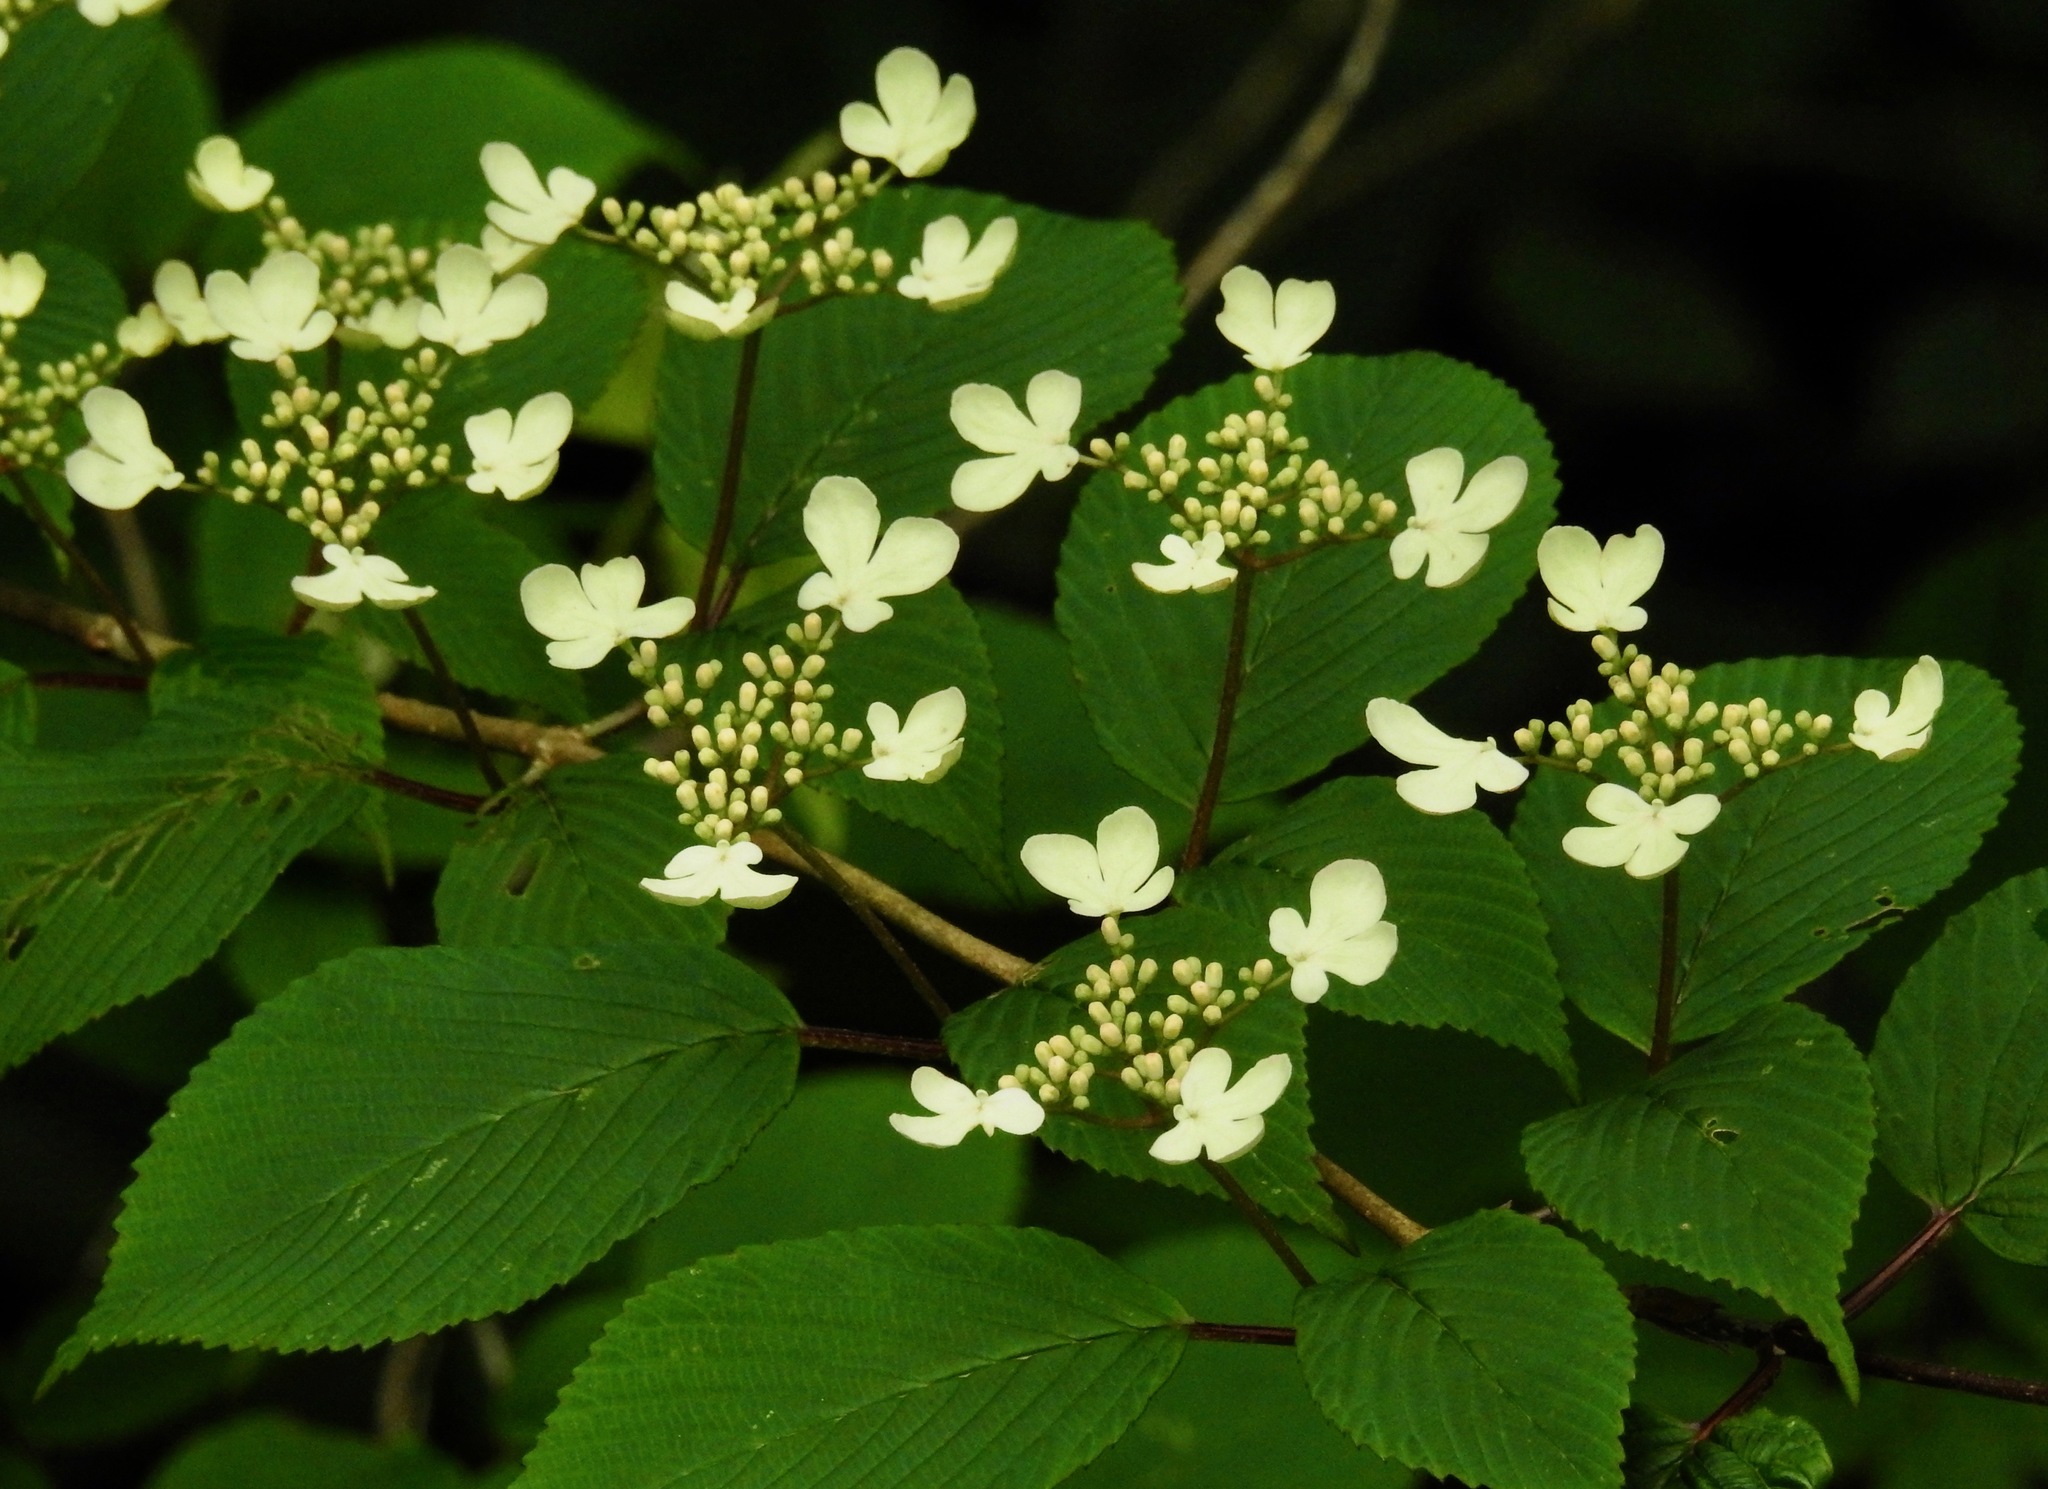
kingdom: Plantae
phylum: Tracheophyta
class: Magnoliopsida
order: Dipsacales
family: Viburnaceae
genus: Viburnum
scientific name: Viburnum plicatum
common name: Japanese snowball
